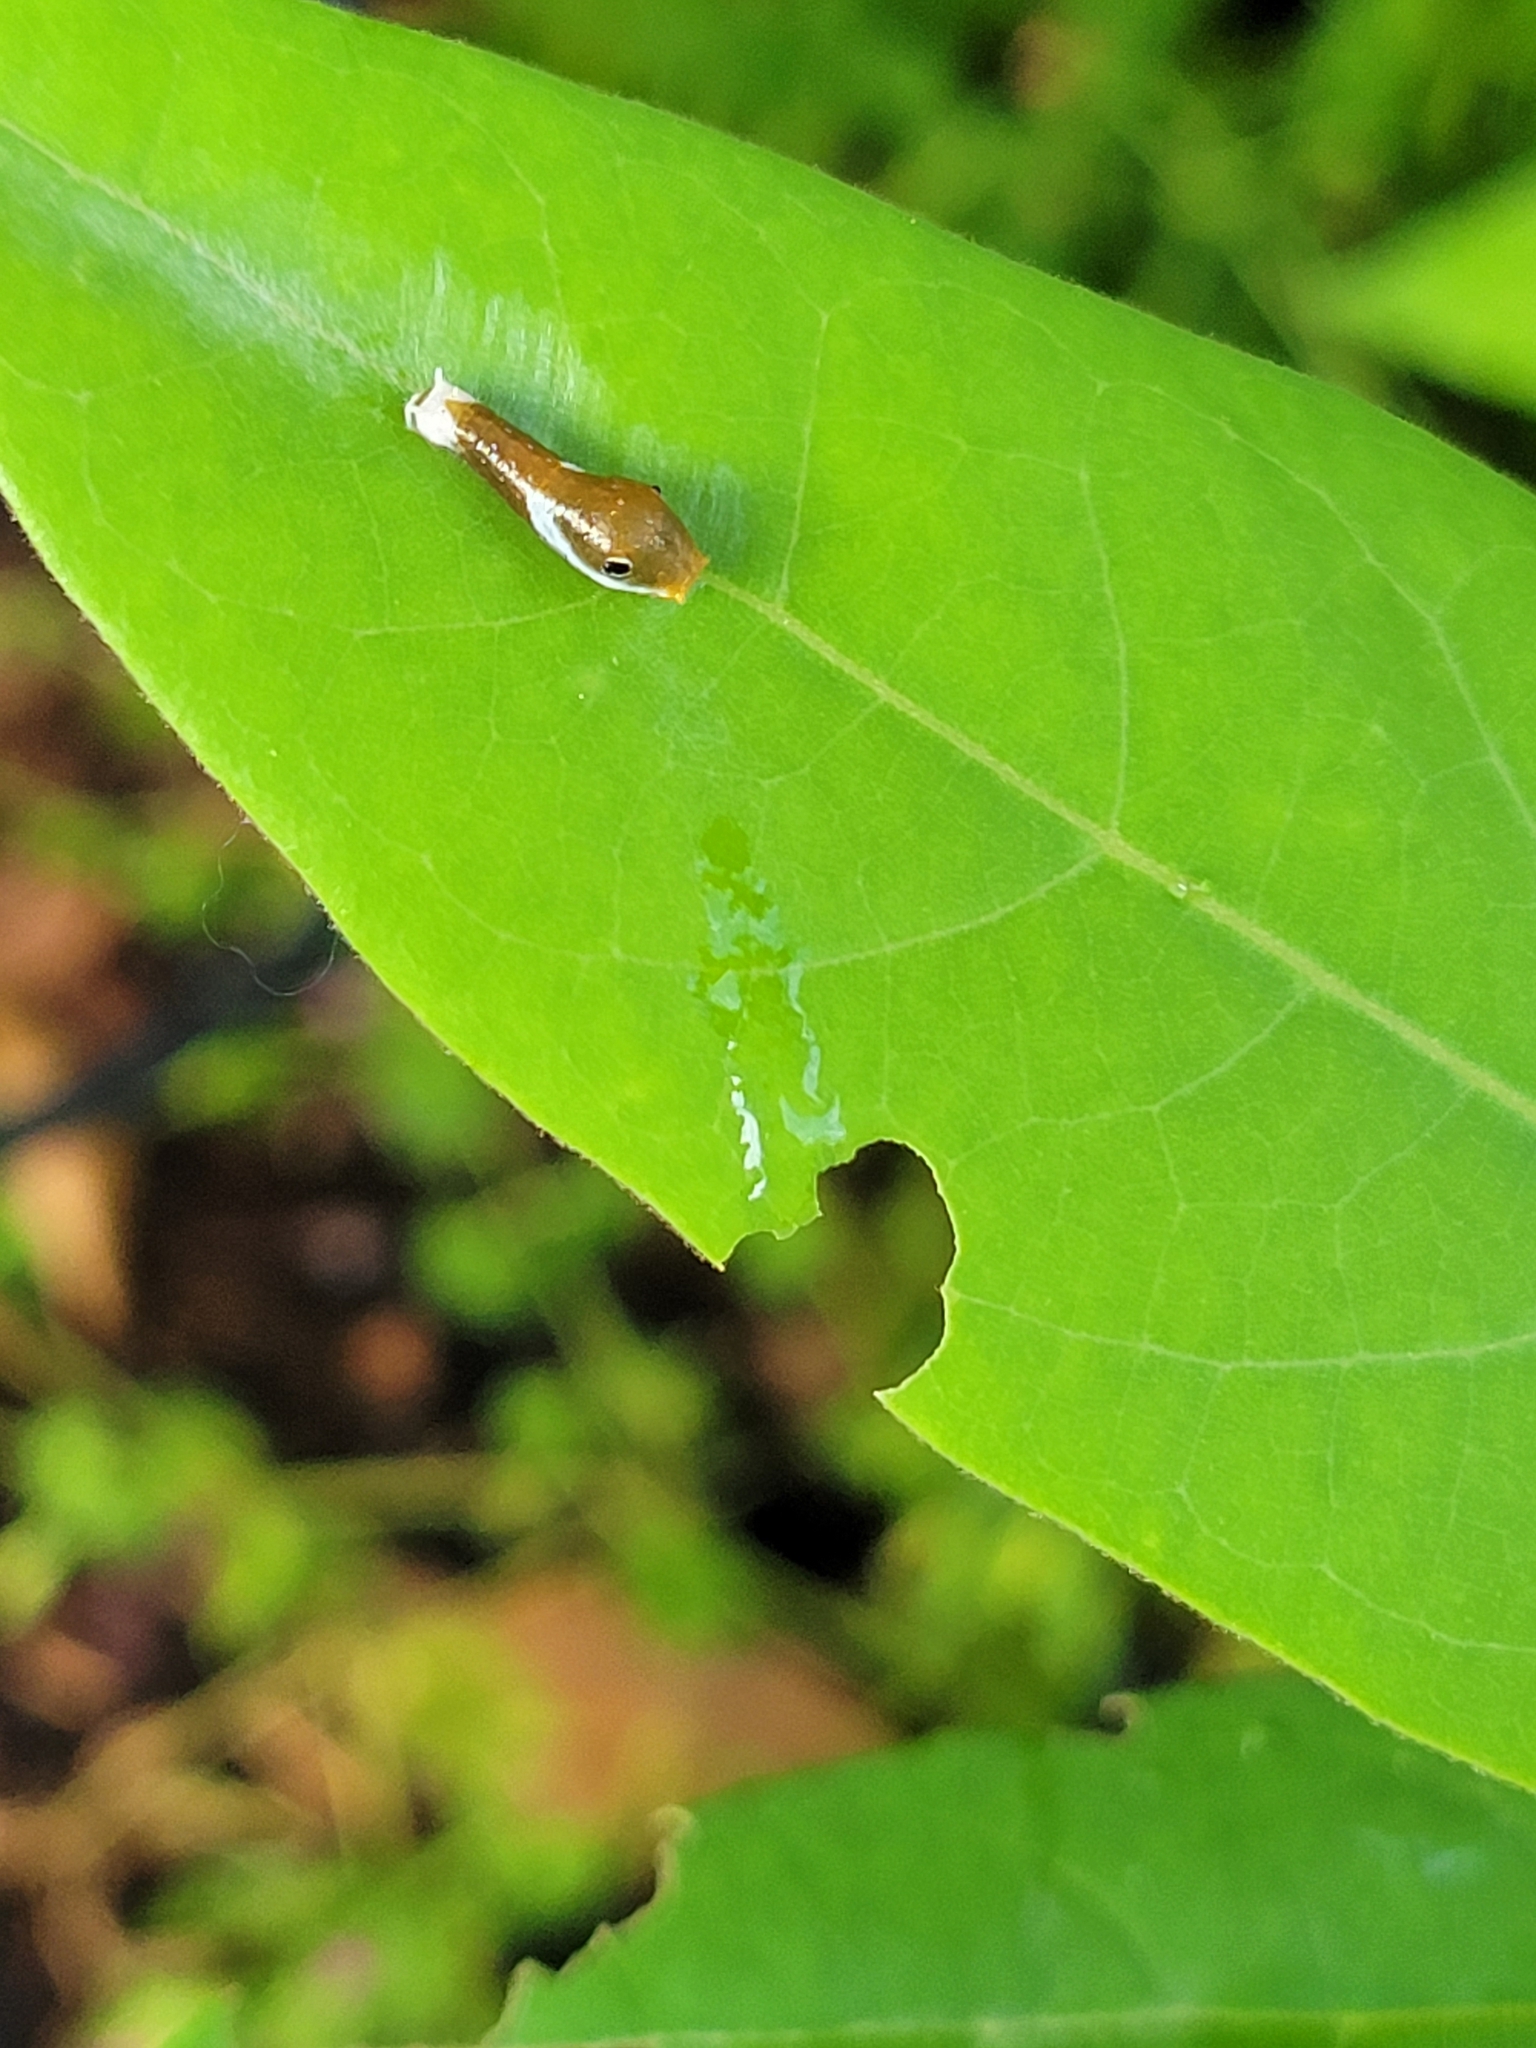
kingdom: Animalia
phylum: Arthropoda
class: Insecta
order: Lepidoptera
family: Papilionidae
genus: Papilio
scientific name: Papilio palamedes
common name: Palamedes swallowtail
